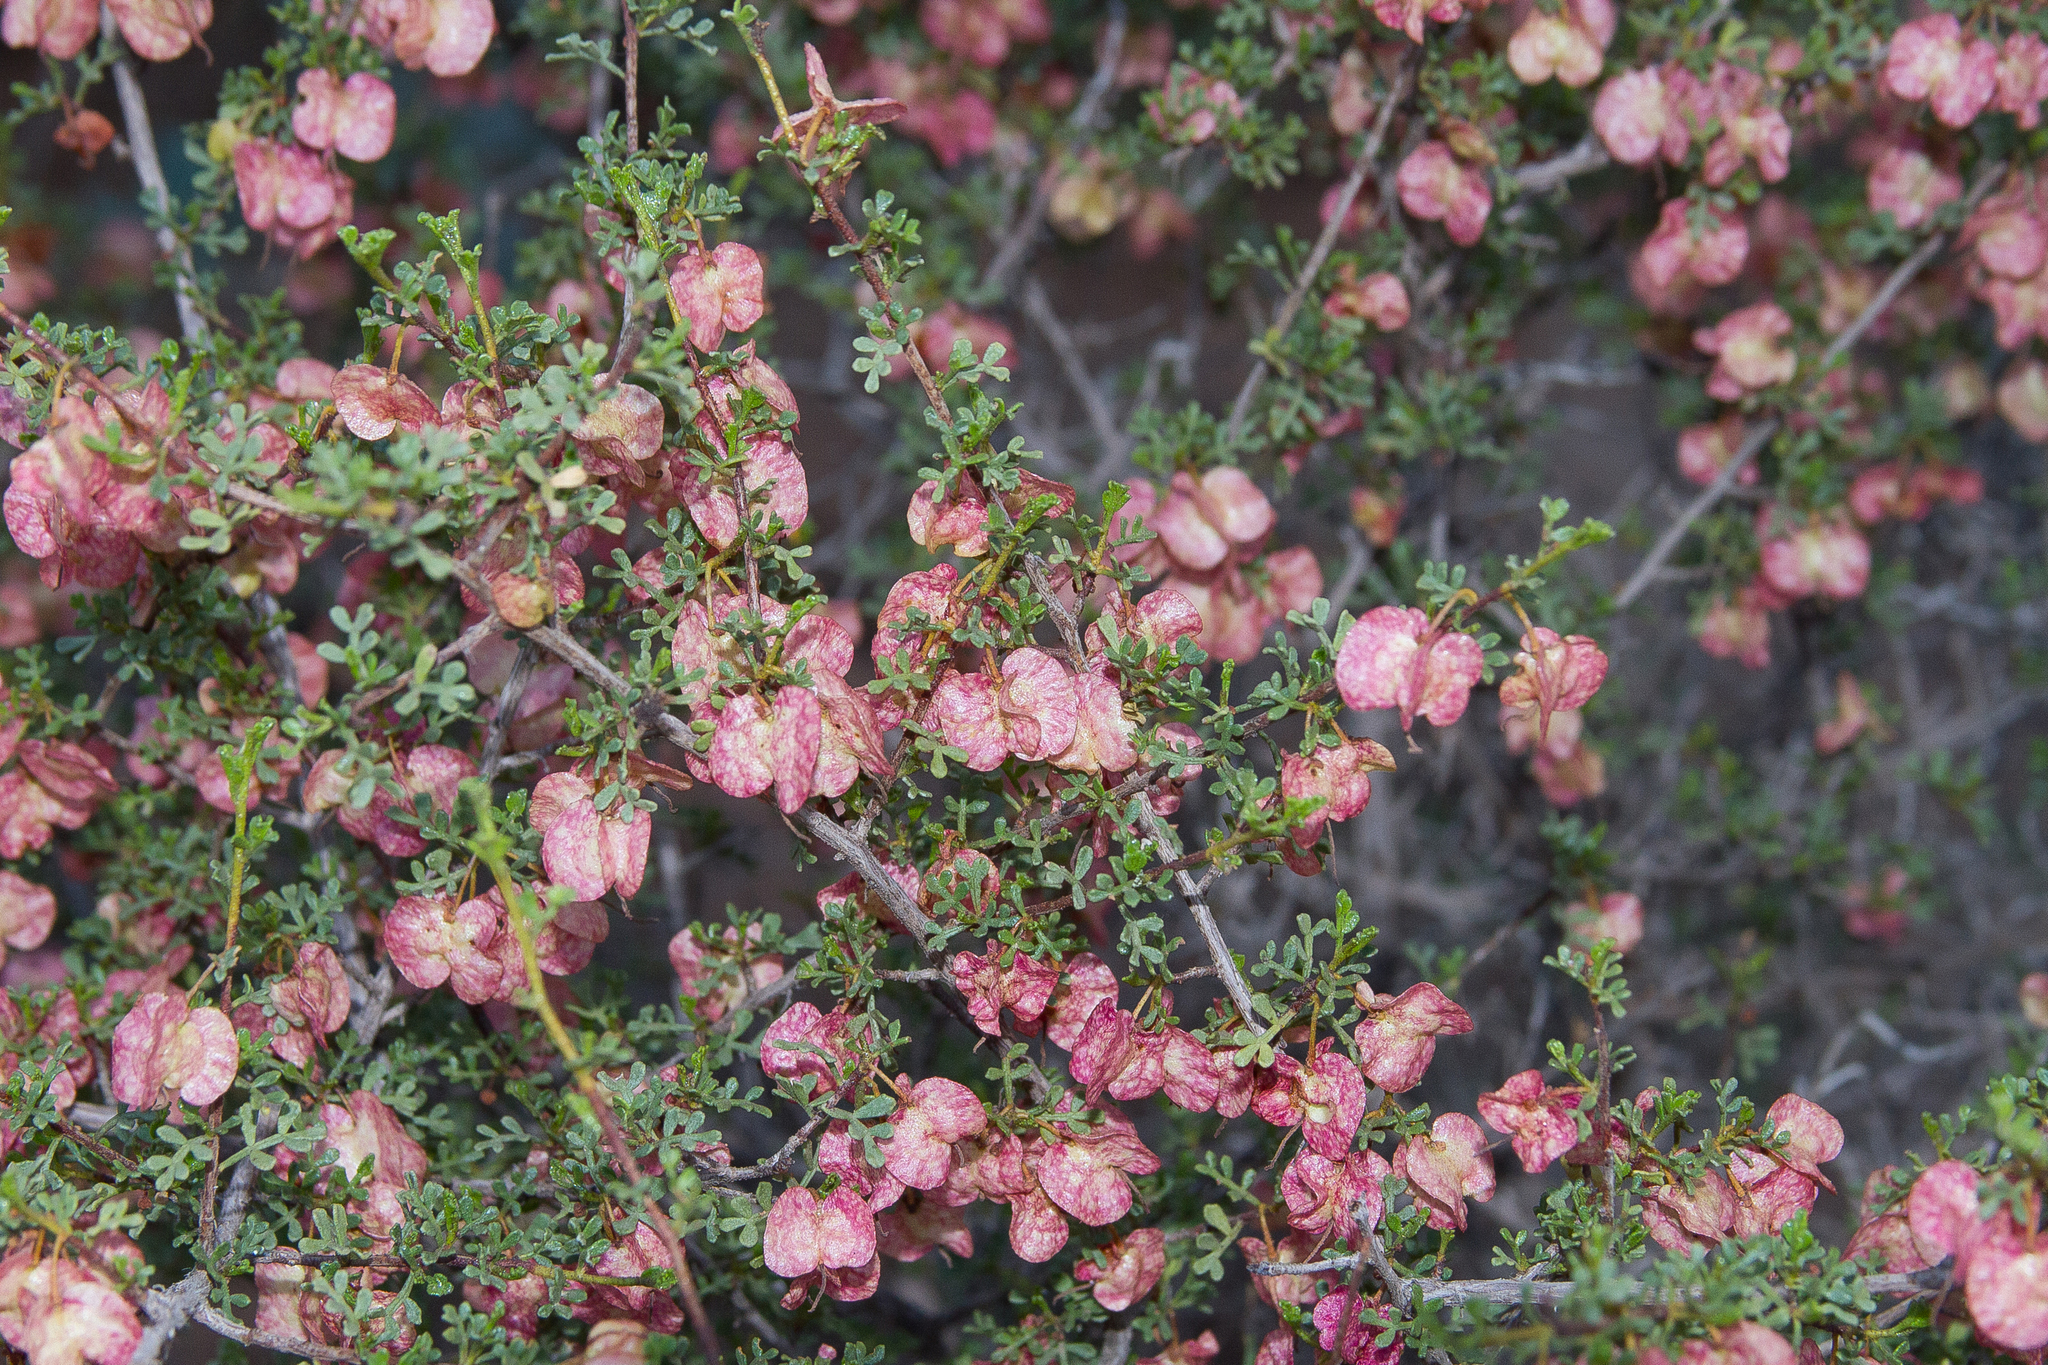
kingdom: Plantae
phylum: Tracheophyta
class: Magnoliopsida
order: Sapindales
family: Sapindaceae
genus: Dodonaea
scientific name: Dodonaea microzyga
